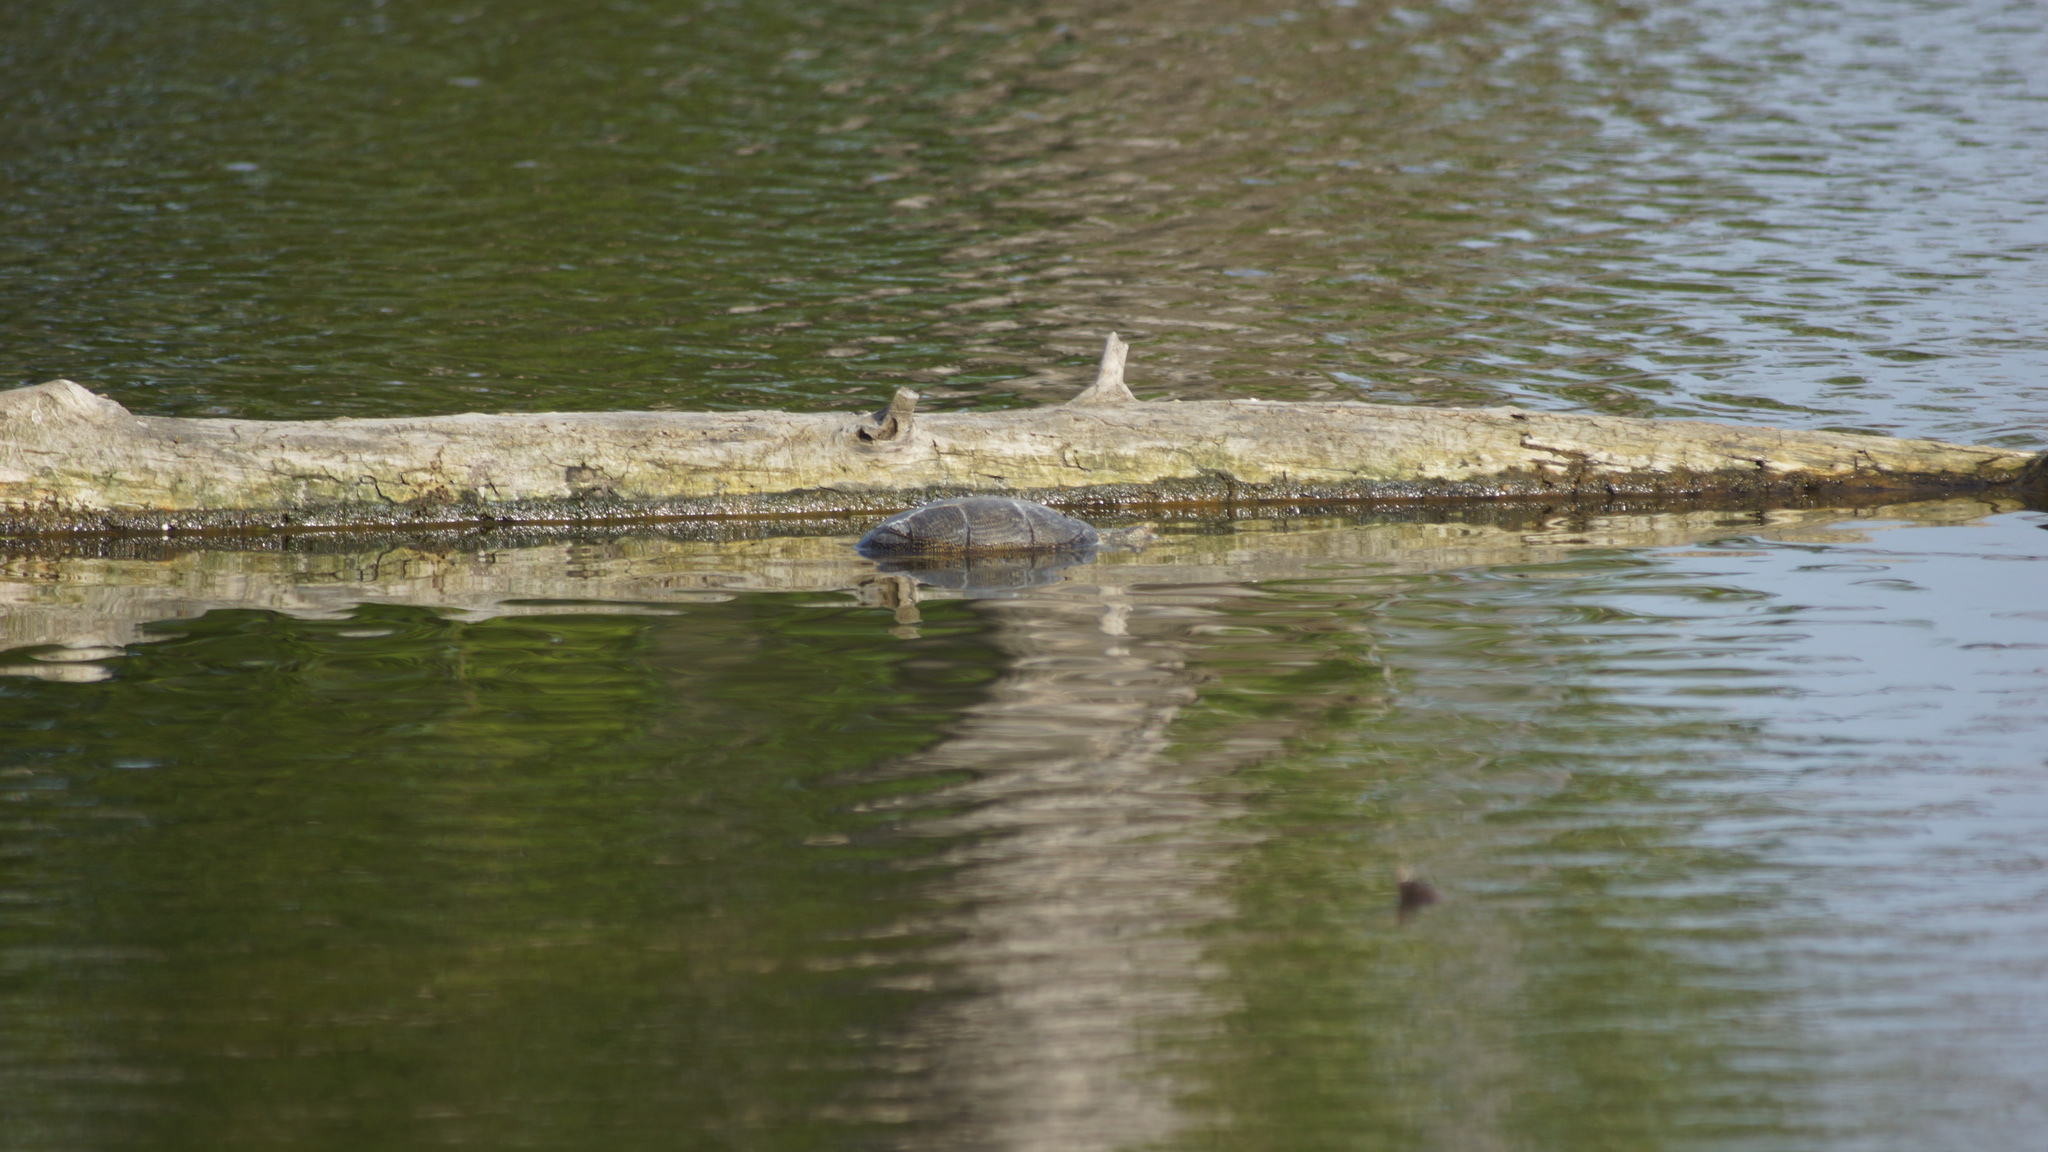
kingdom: Animalia
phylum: Chordata
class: Testudines
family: Emydidae
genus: Emys
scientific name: Emys orbicularis
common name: European pond turtle
